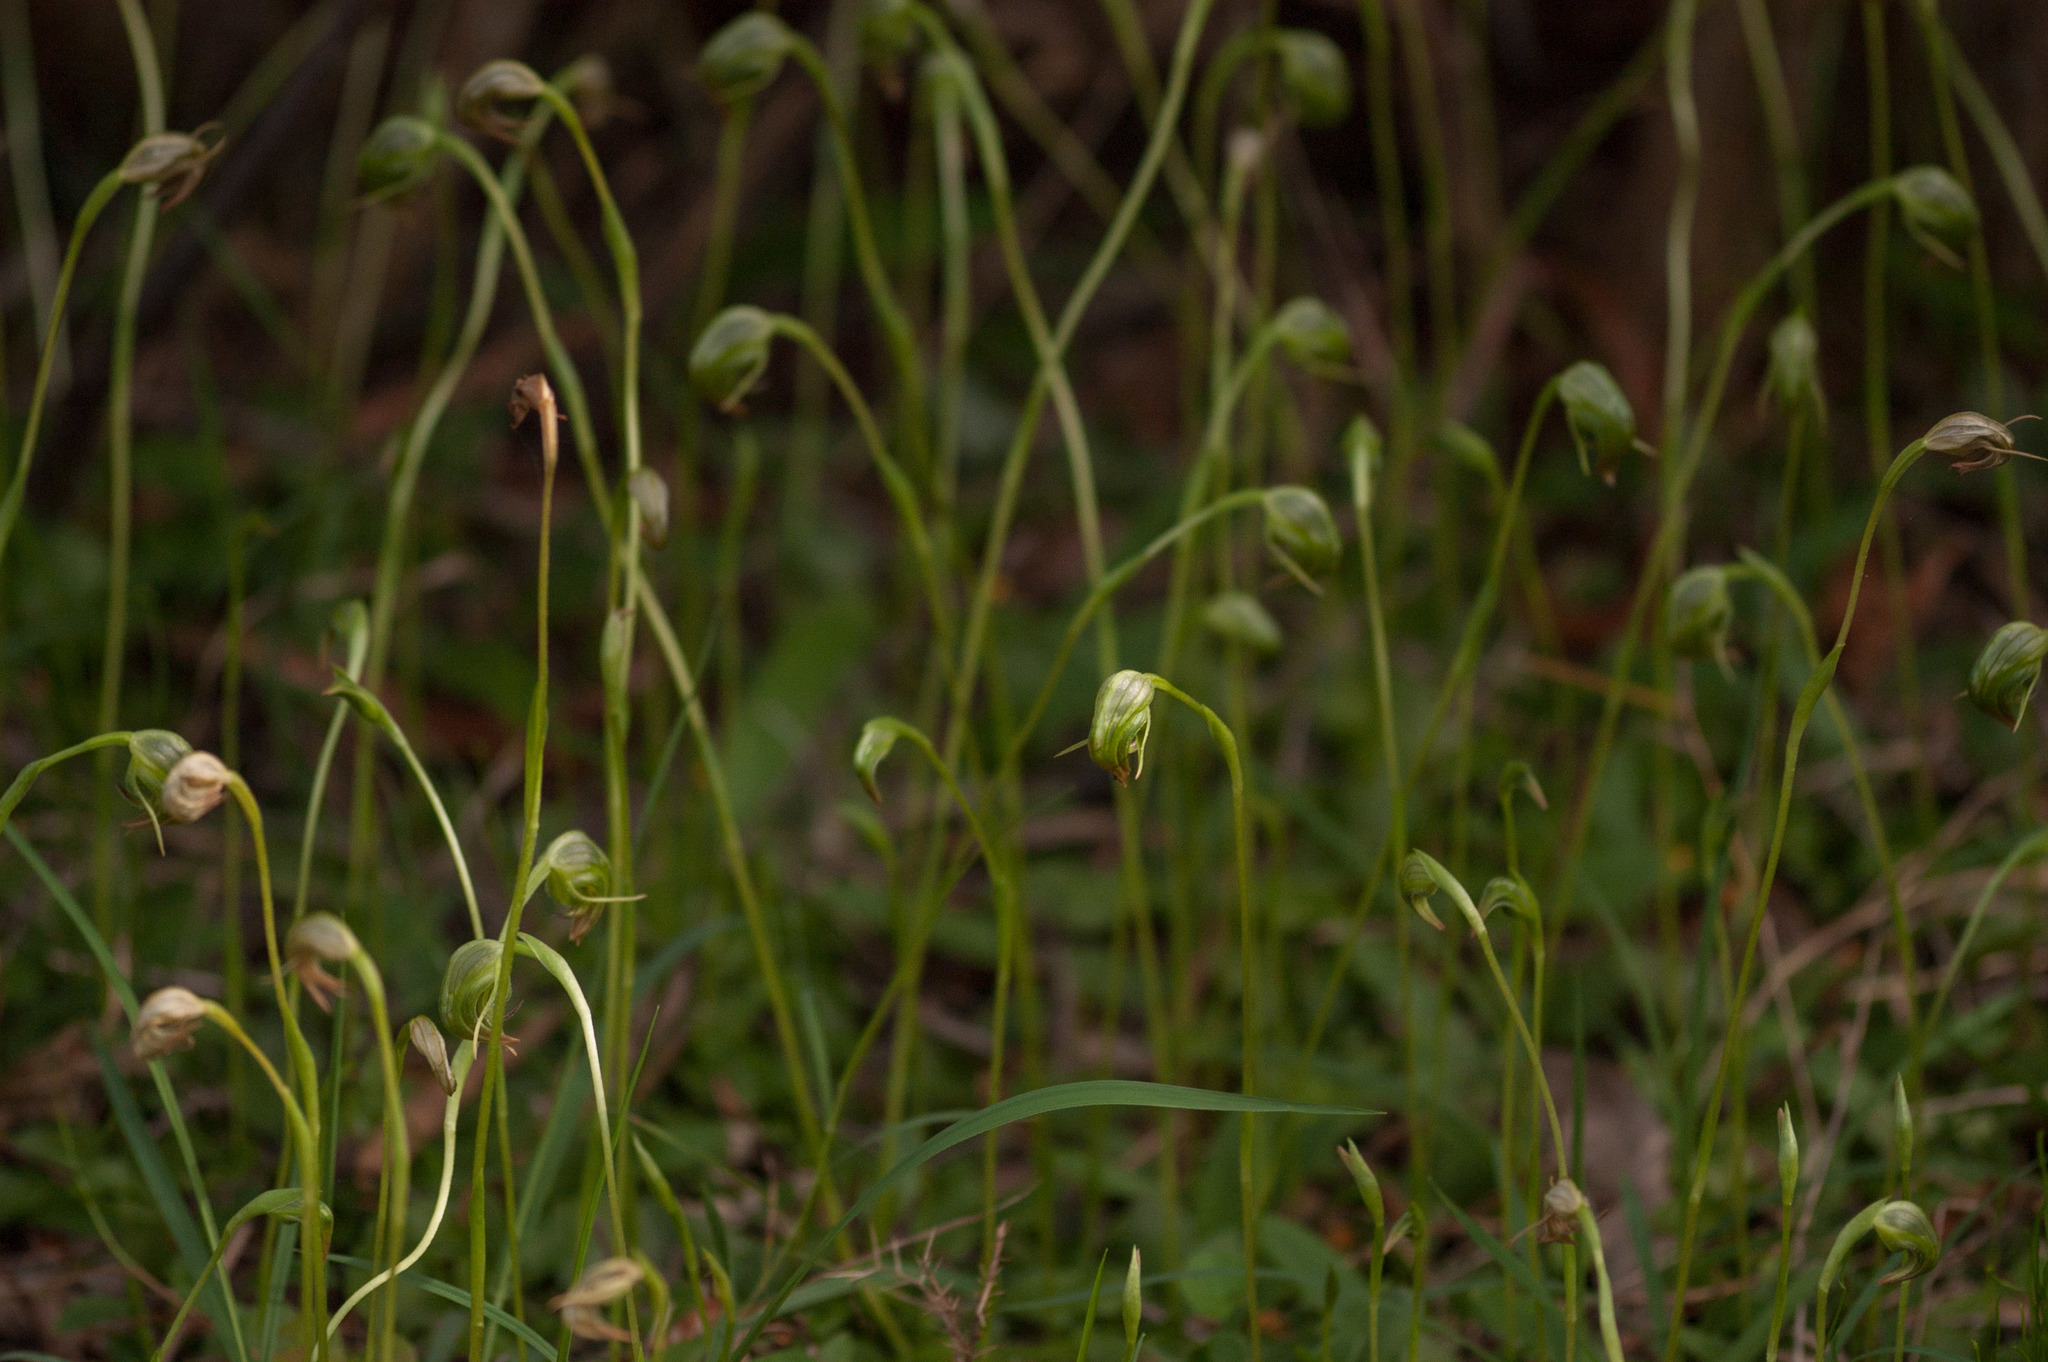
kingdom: Plantae
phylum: Tracheophyta
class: Liliopsida
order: Asparagales
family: Orchidaceae
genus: Pterostylis
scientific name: Pterostylis nutans
